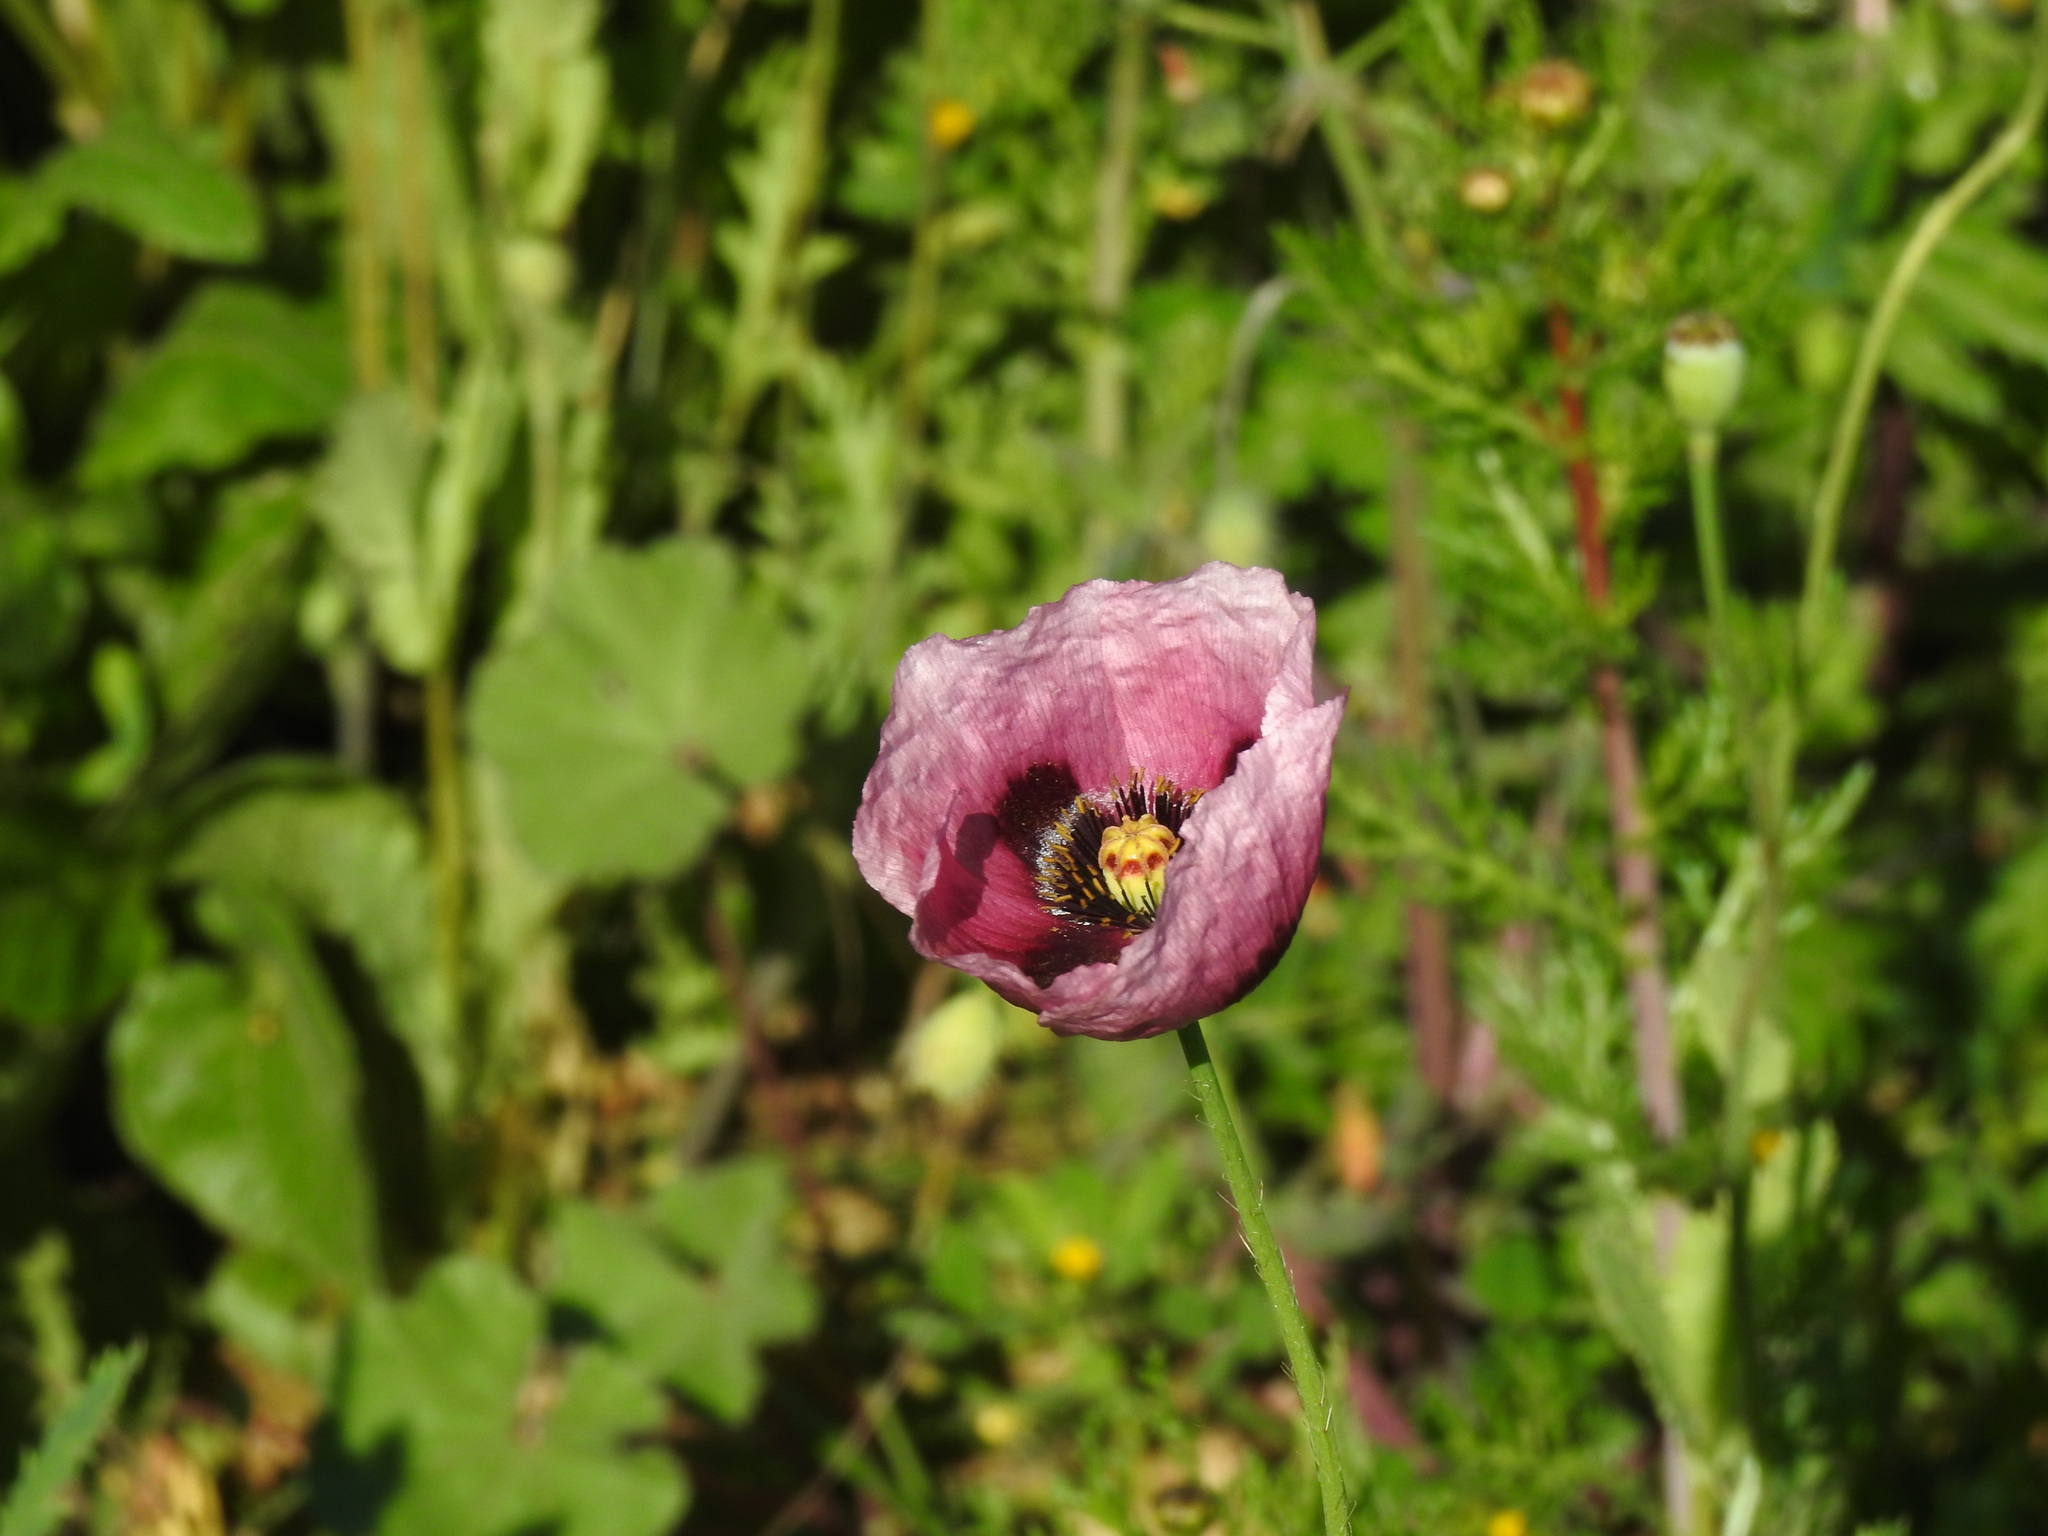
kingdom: Plantae
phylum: Tracheophyta
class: Magnoliopsida
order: Ranunculales
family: Papaveraceae
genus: Papaver
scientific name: Papaver setigerum
